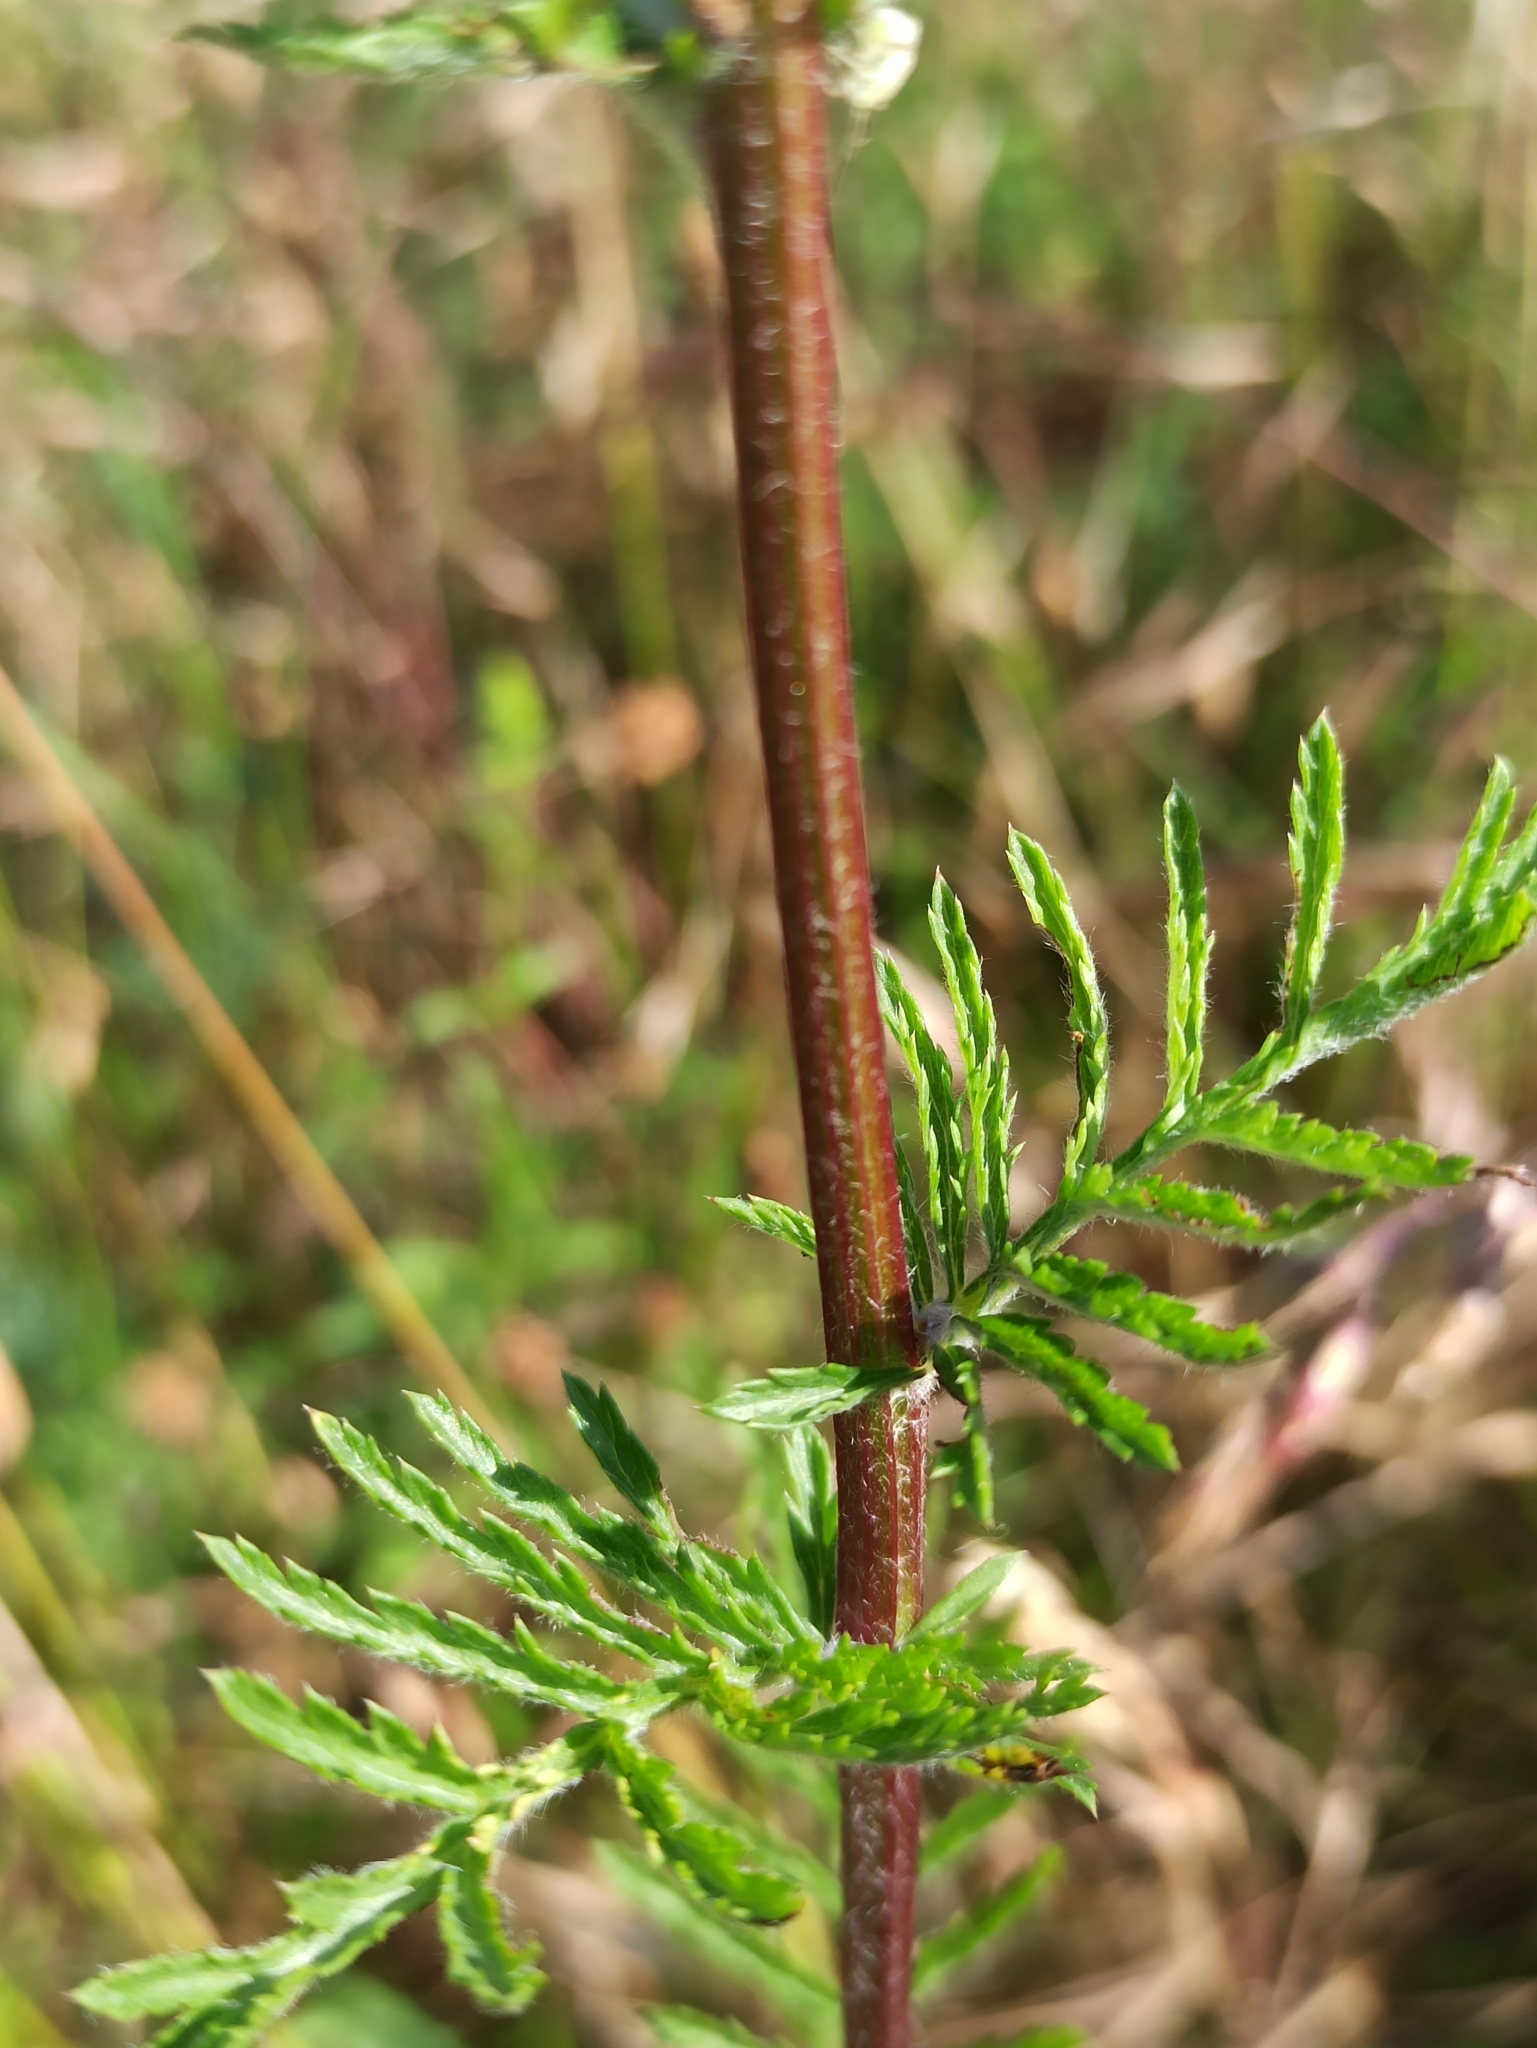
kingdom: Plantae
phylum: Tracheophyta
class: Magnoliopsida
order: Asterales
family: Asteraceae
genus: Tanacetum
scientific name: Tanacetum corymbosum
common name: Scentless feverfew
